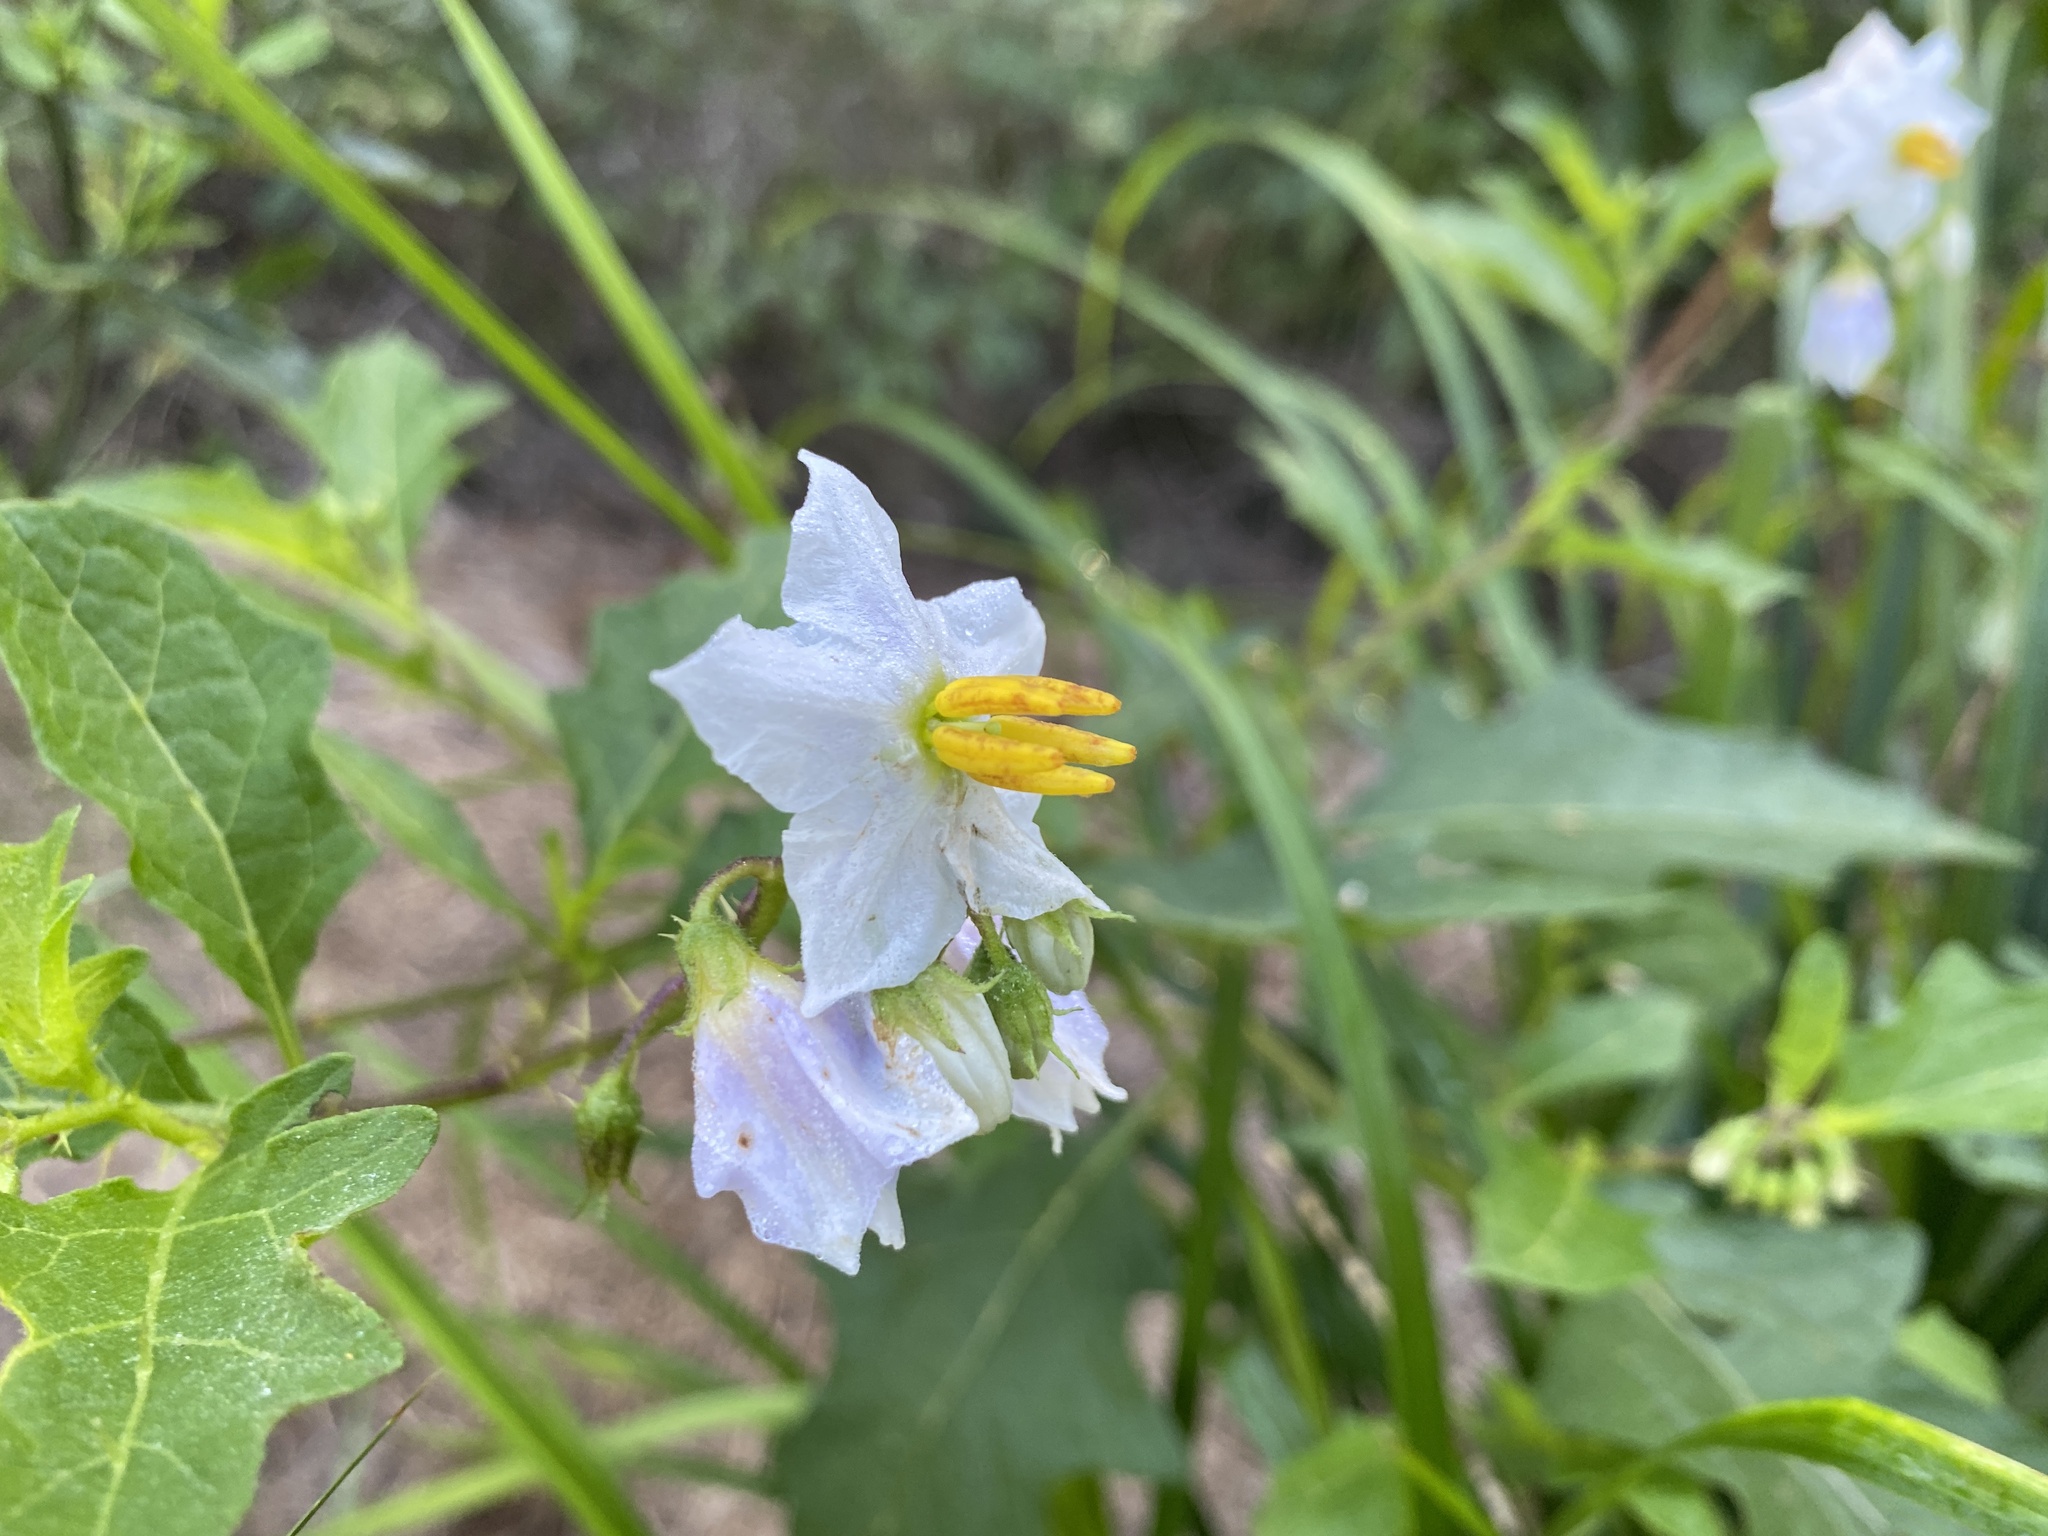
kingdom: Plantae
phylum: Tracheophyta
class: Magnoliopsida
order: Solanales
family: Solanaceae
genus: Solanum
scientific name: Solanum carolinense
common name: Horse-nettle
